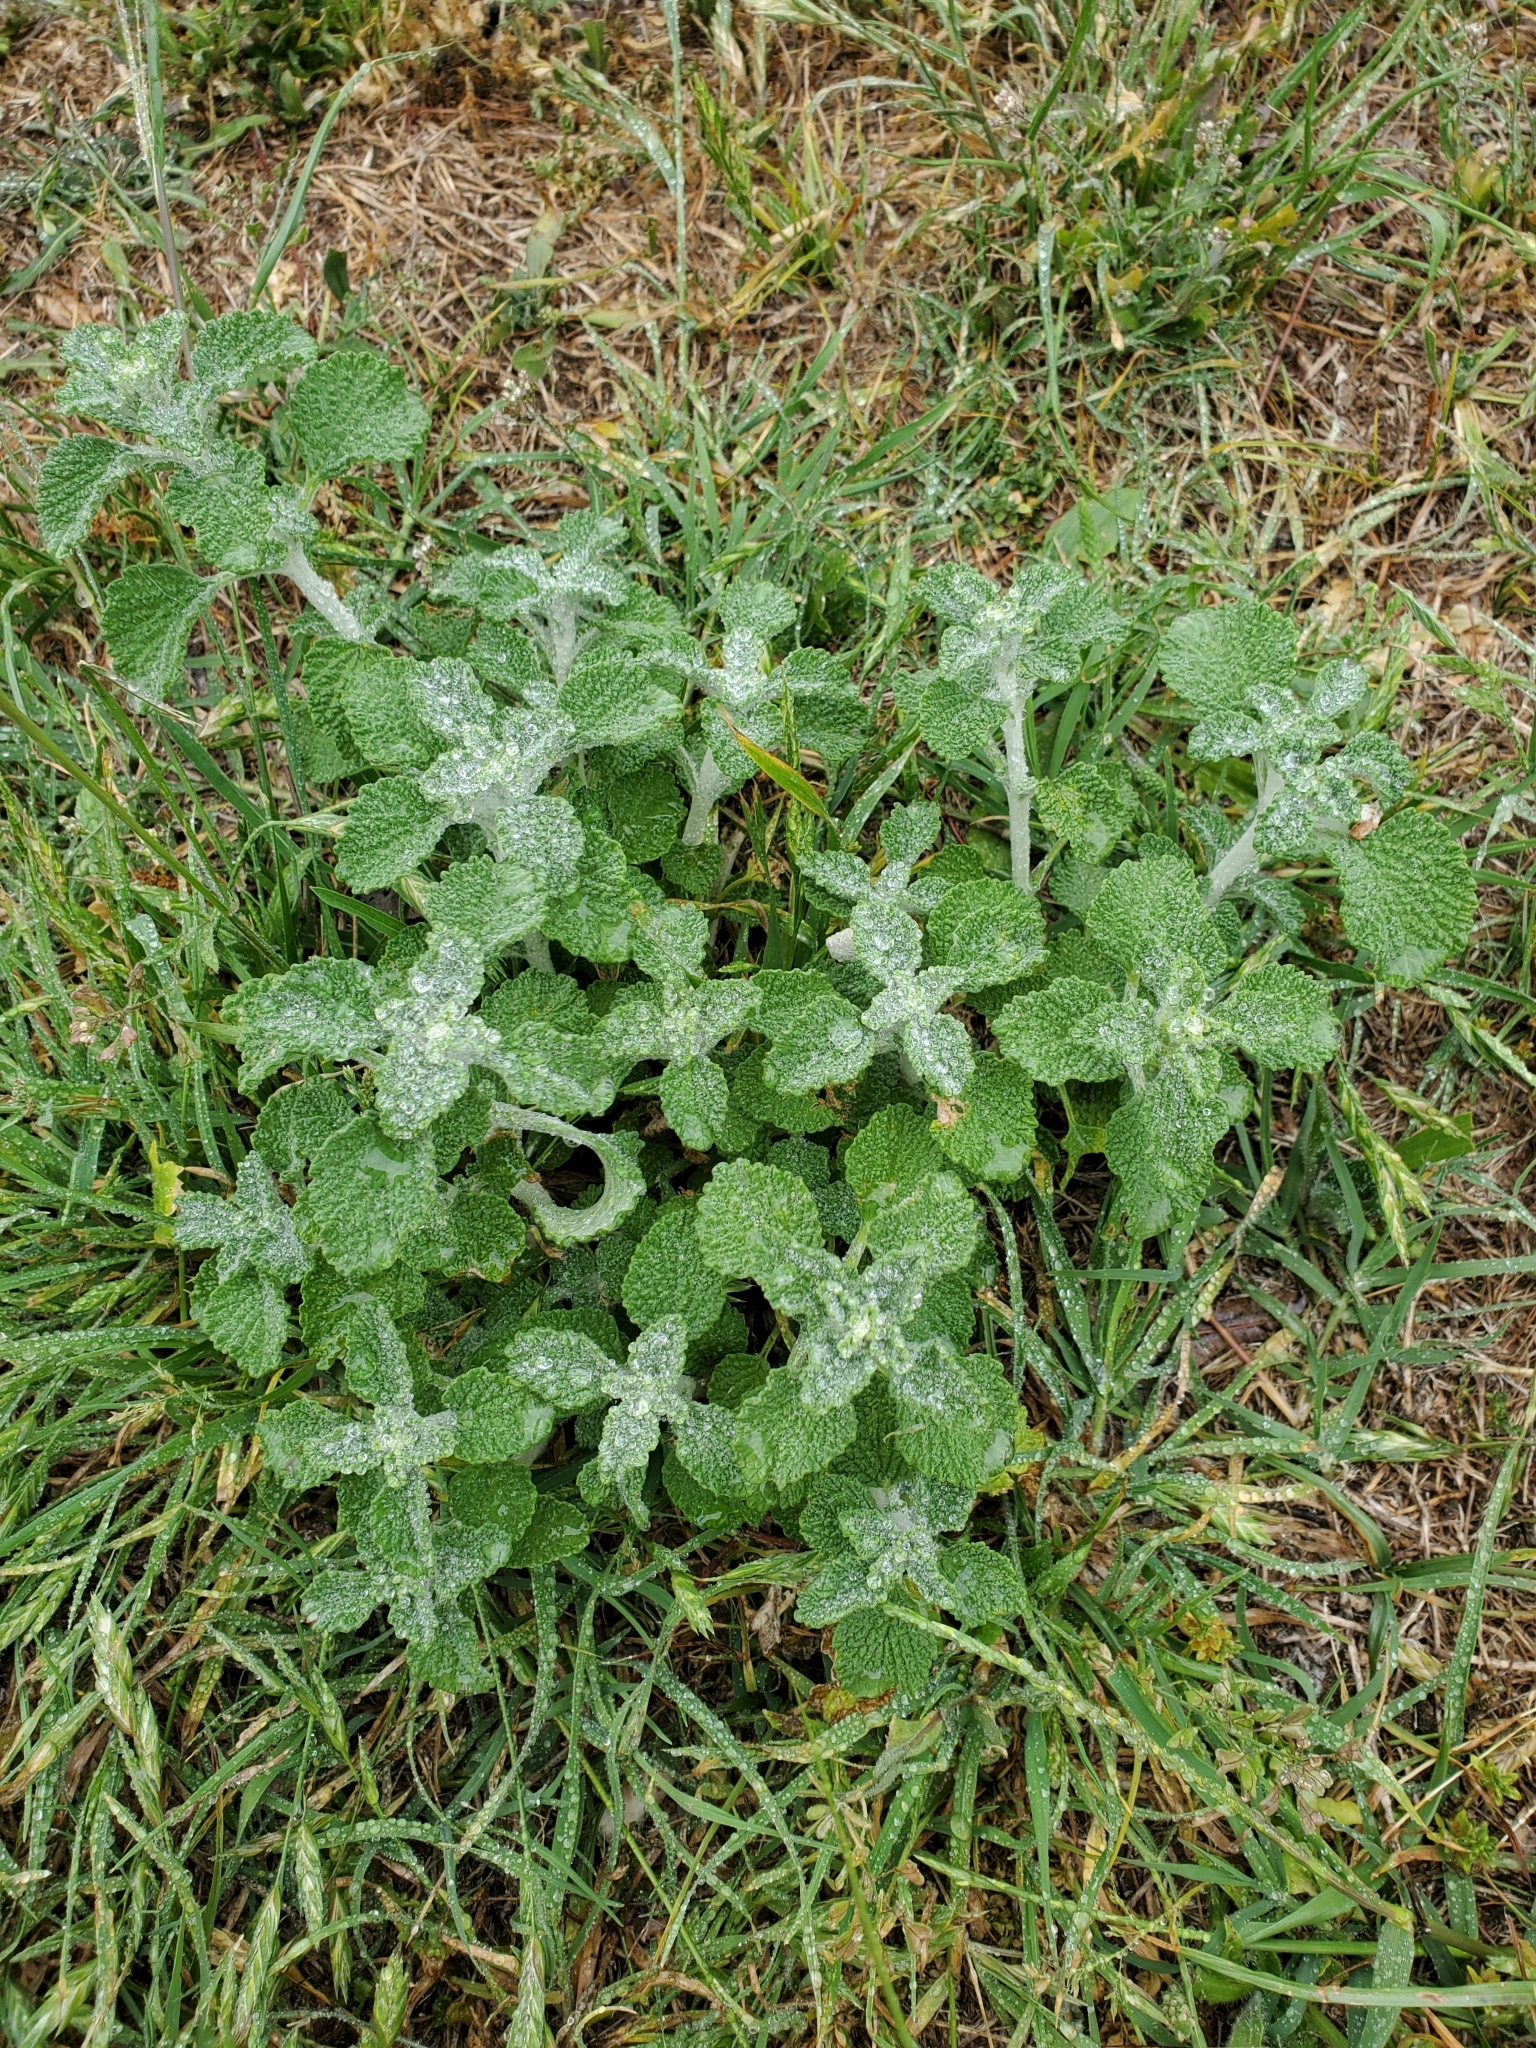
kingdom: Plantae
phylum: Tracheophyta
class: Magnoliopsida
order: Lamiales
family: Lamiaceae
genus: Marrubium
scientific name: Marrubium vulgare
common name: Horehound
